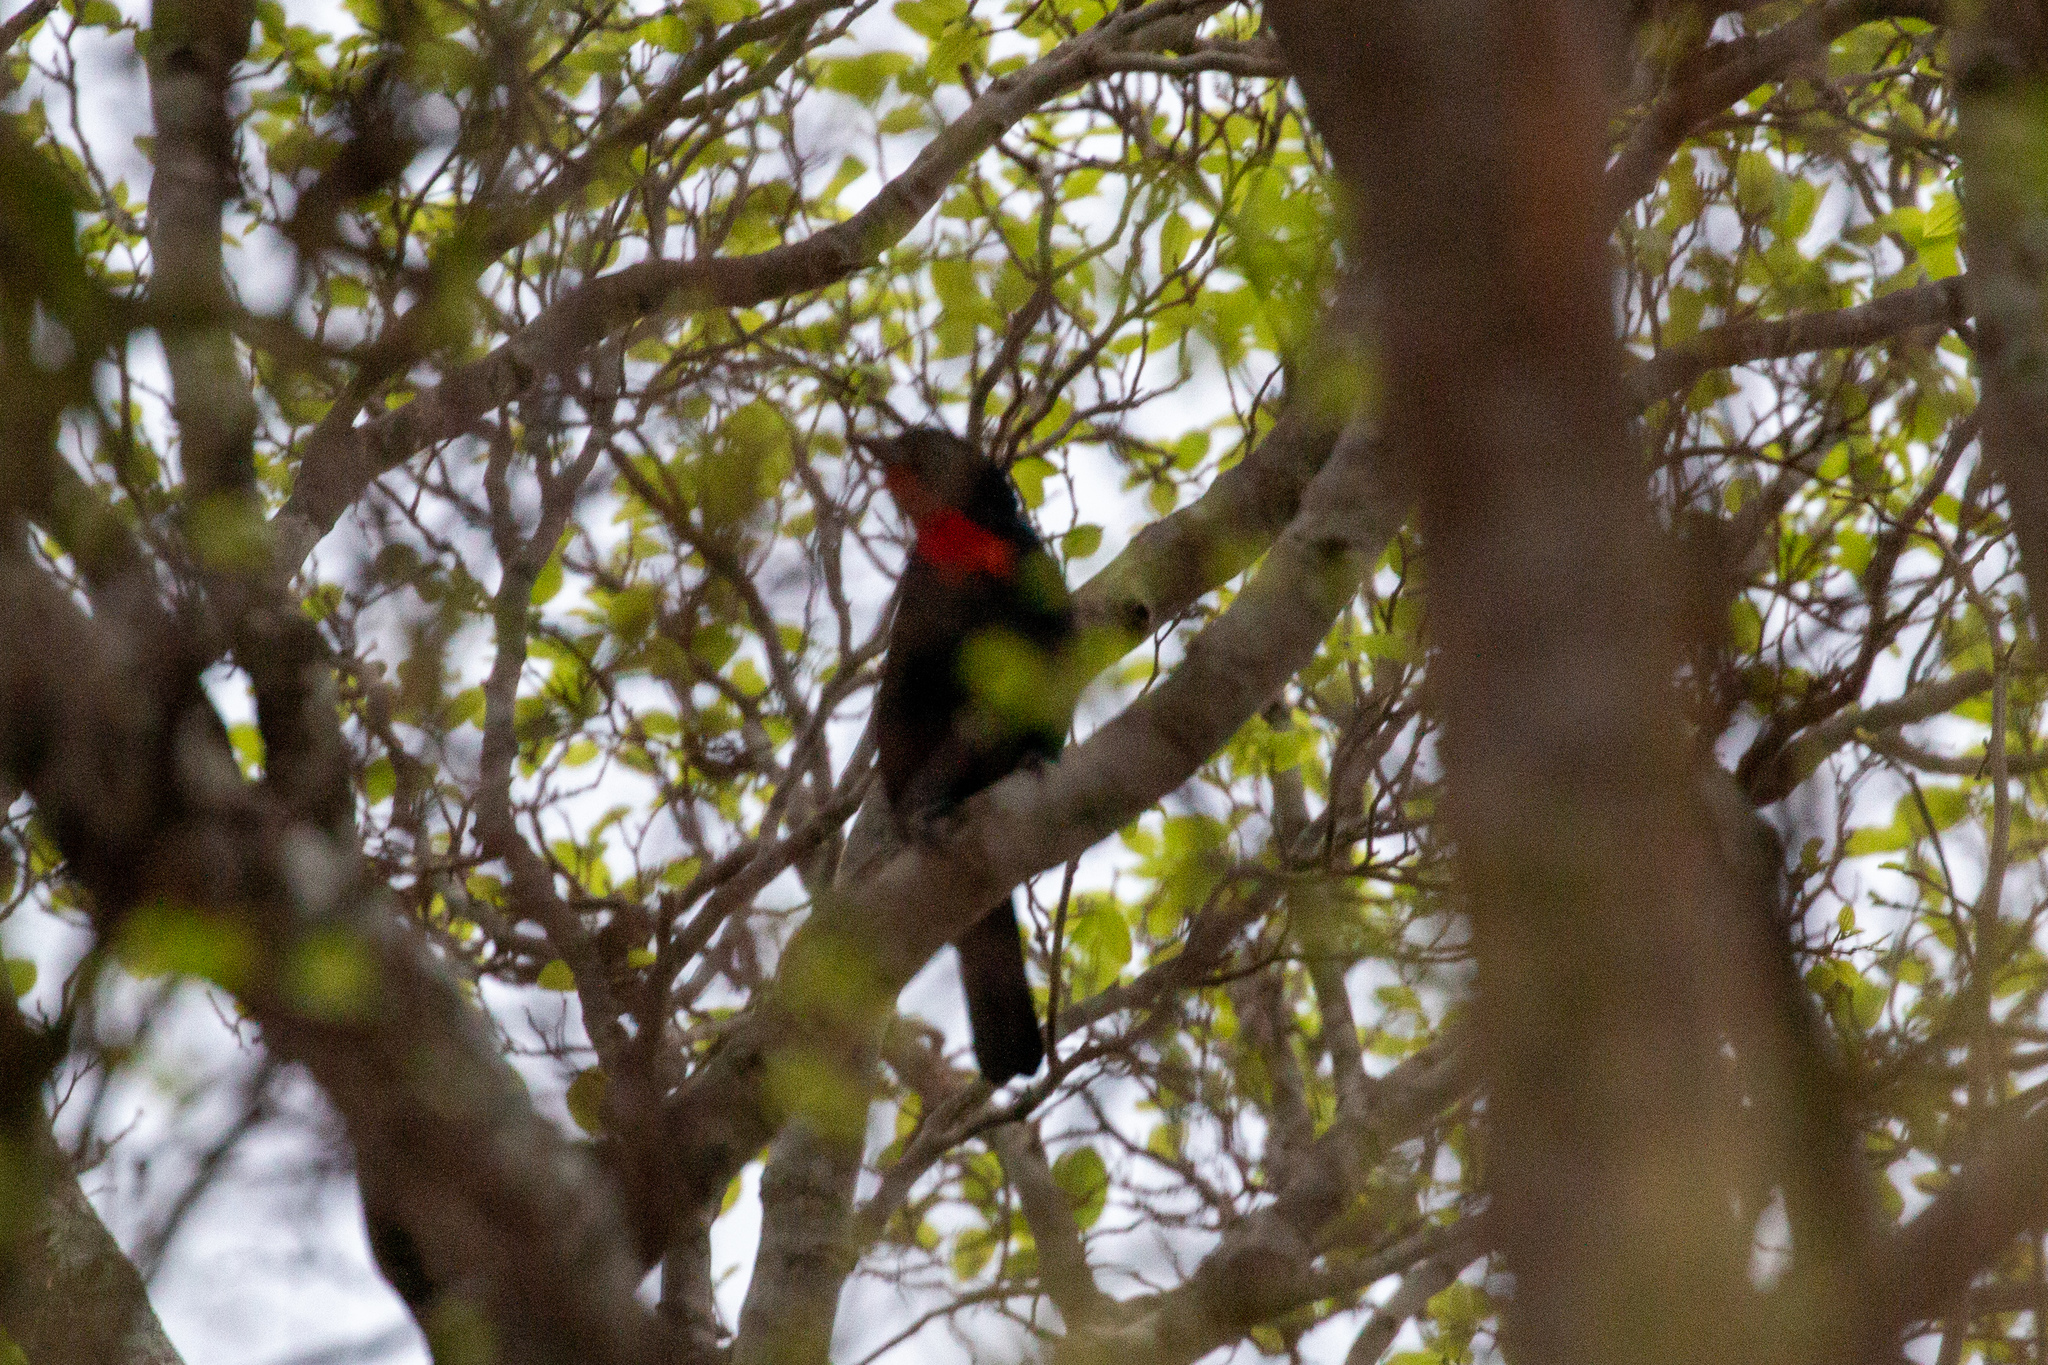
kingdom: Animalia
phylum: Chordata
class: Aves
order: Passeriformes
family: Thraupidae
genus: Compsothraupis
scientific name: Compsothraupis loricata
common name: Scarlet-throated tanager
